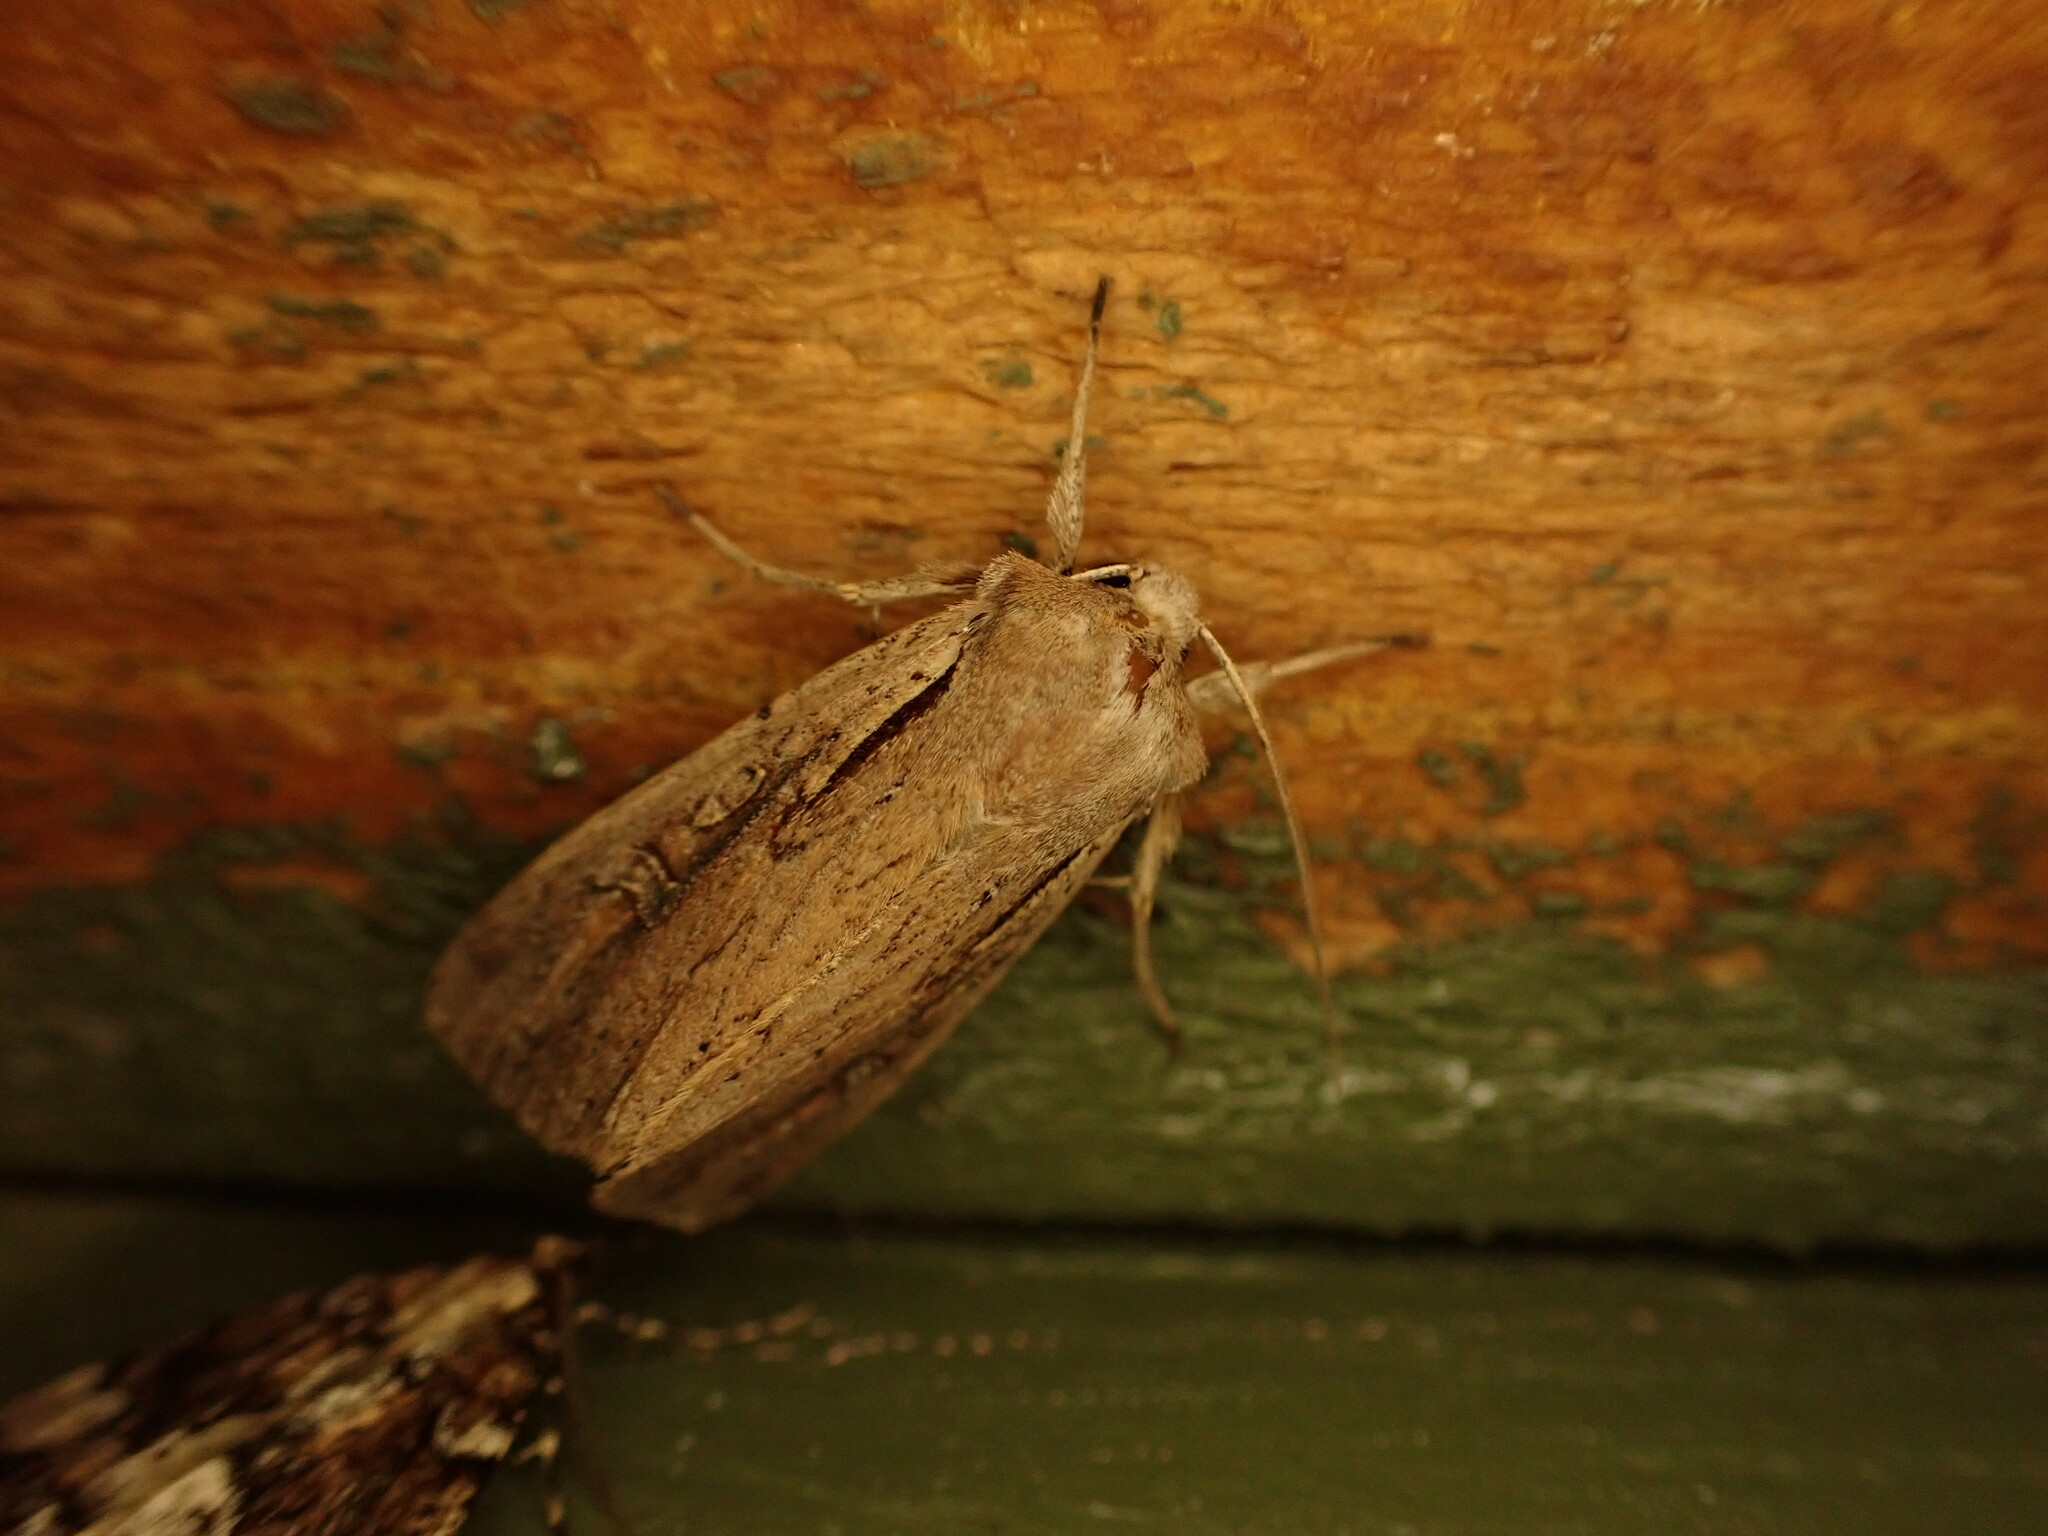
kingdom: Animalia
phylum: Arthropoda
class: Insecta
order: Lepidoptera
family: Noctuidae
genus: Ichneutica
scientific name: Ichneutica atristriga
